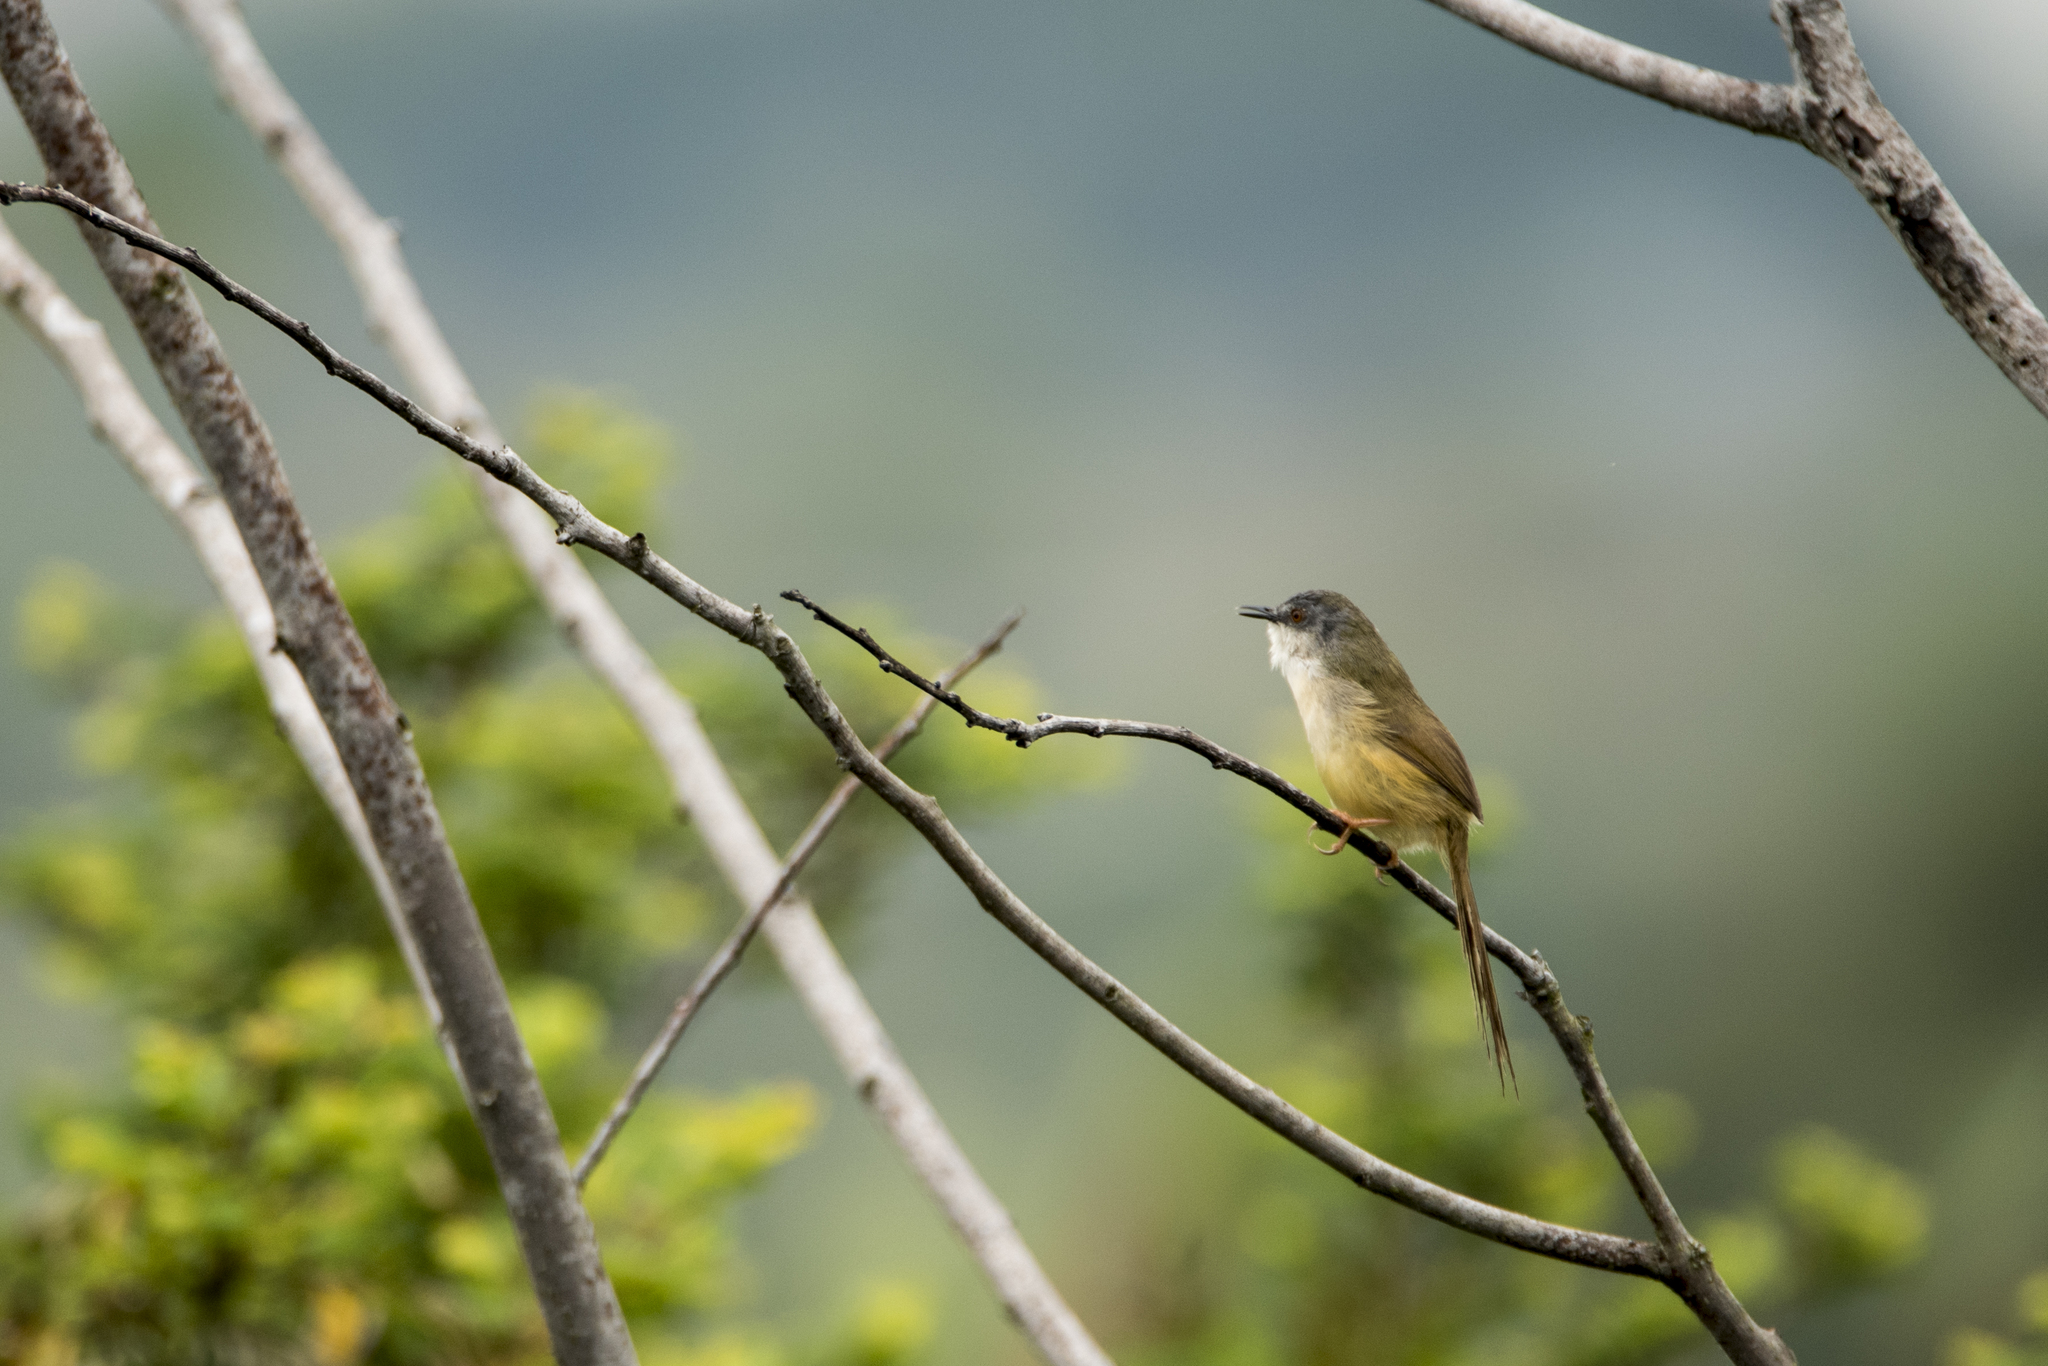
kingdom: Animalia
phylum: Chordata
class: Aves
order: Passeriformes
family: Cisticolidae
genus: Prinia
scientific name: Prinia flaviventris
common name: Yellow-bellied prinia
